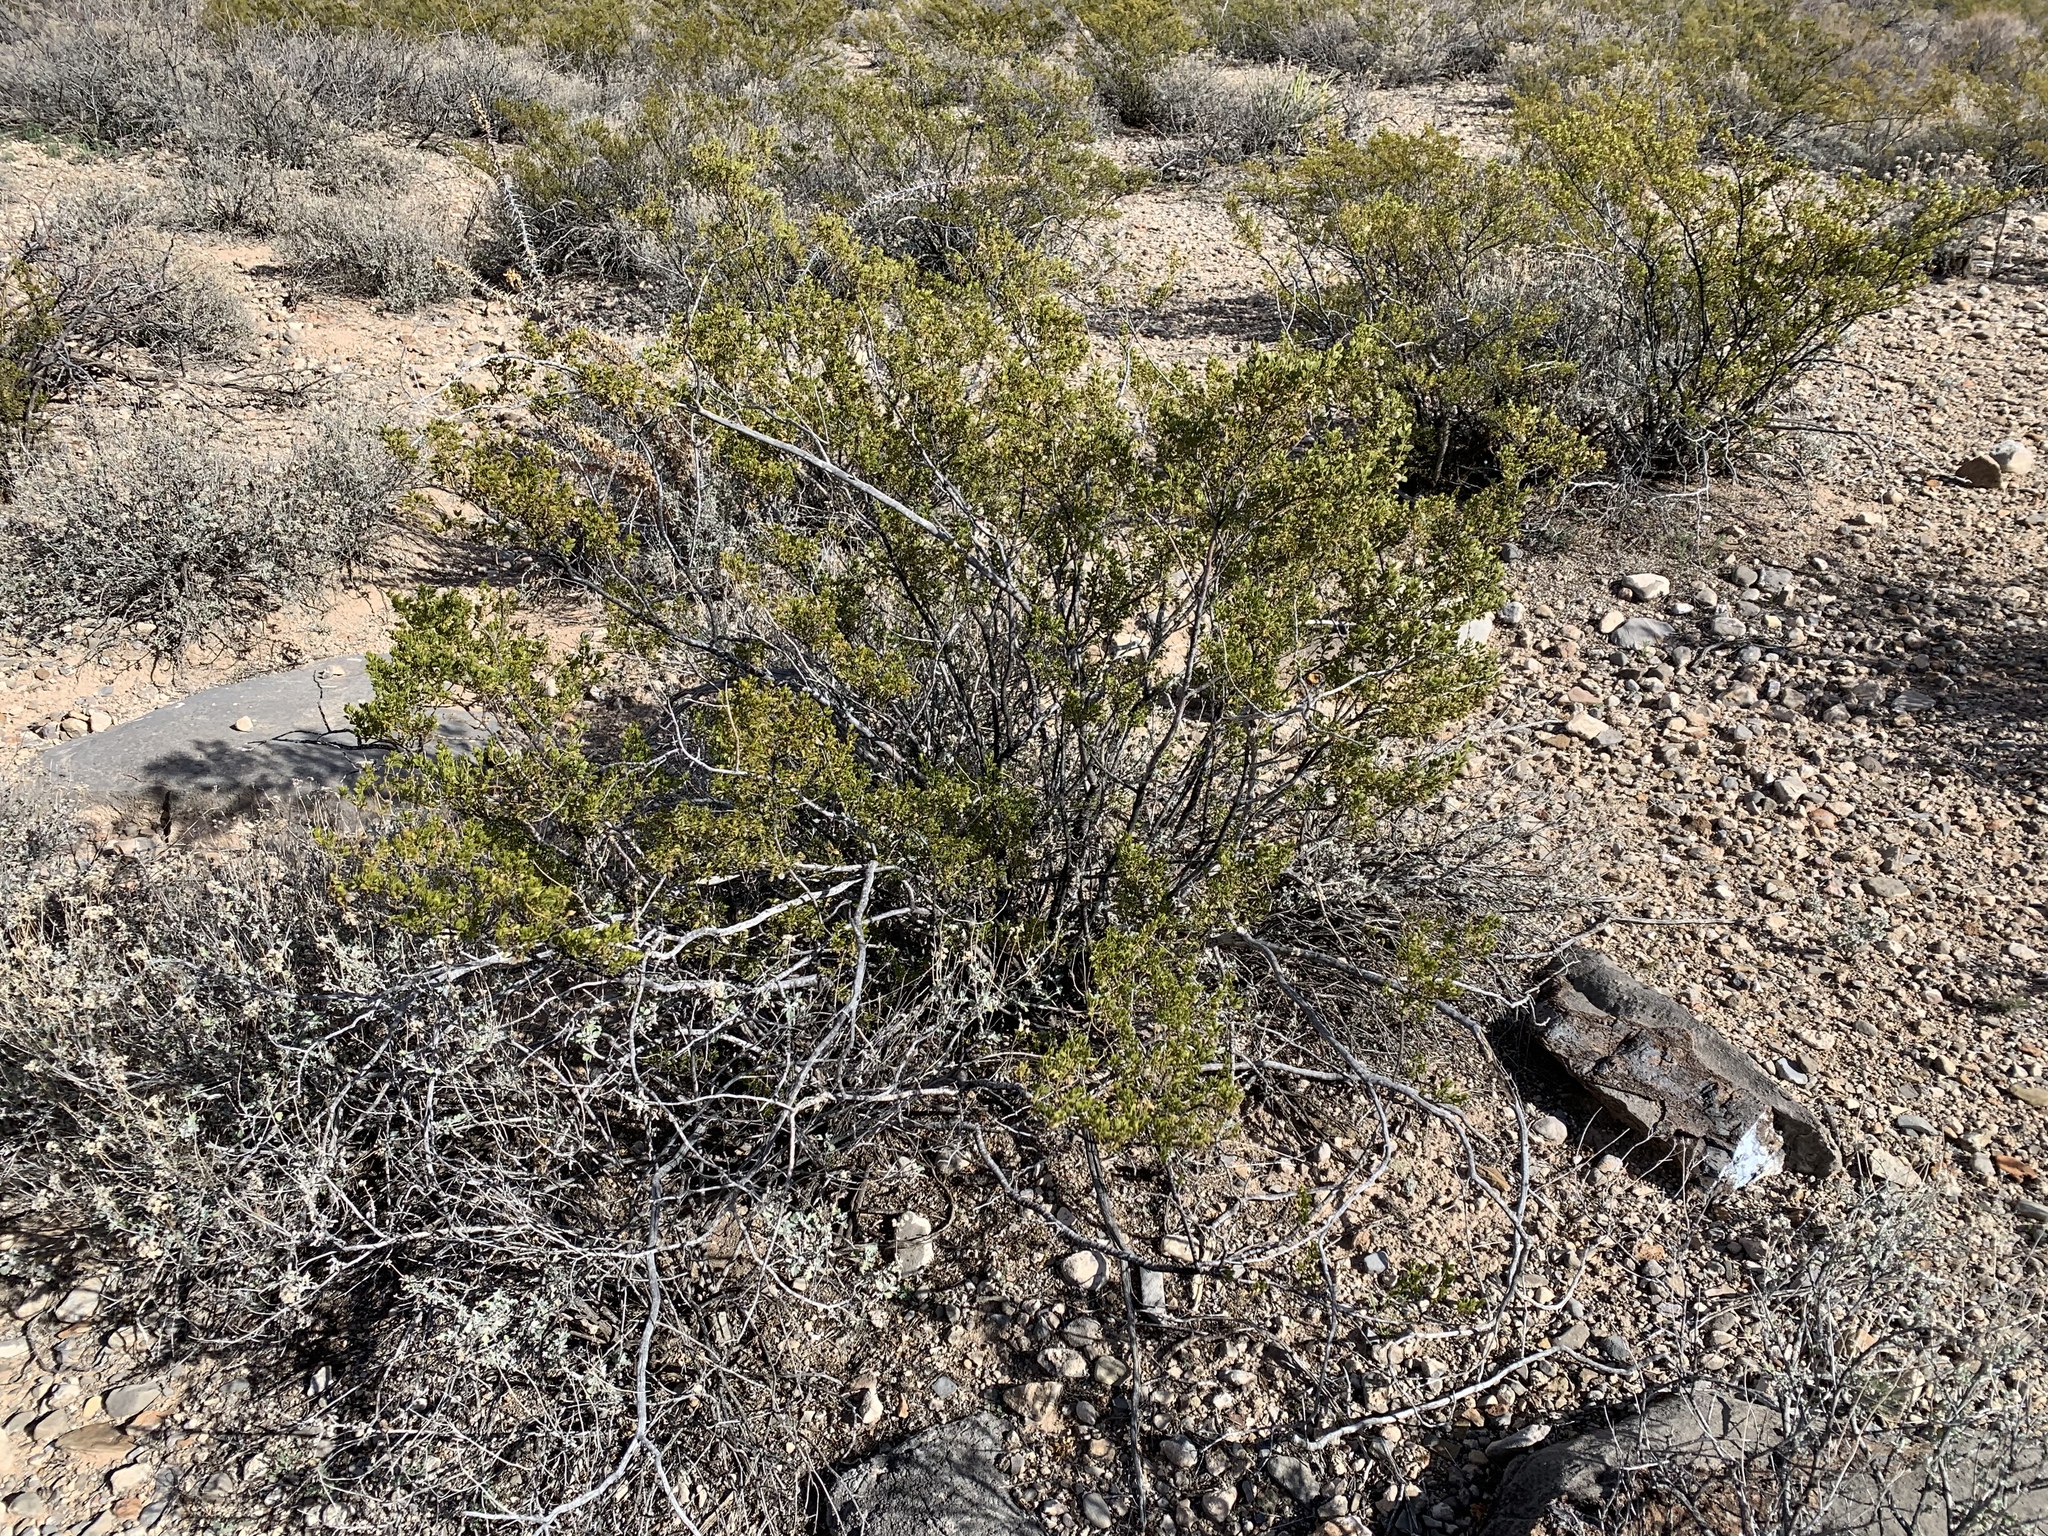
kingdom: Plantae
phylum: Tracheophyta
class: Magnoliopsida
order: Zygophyllales
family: Zygophyllaceae
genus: Larrea
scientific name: Larrea tridentata
